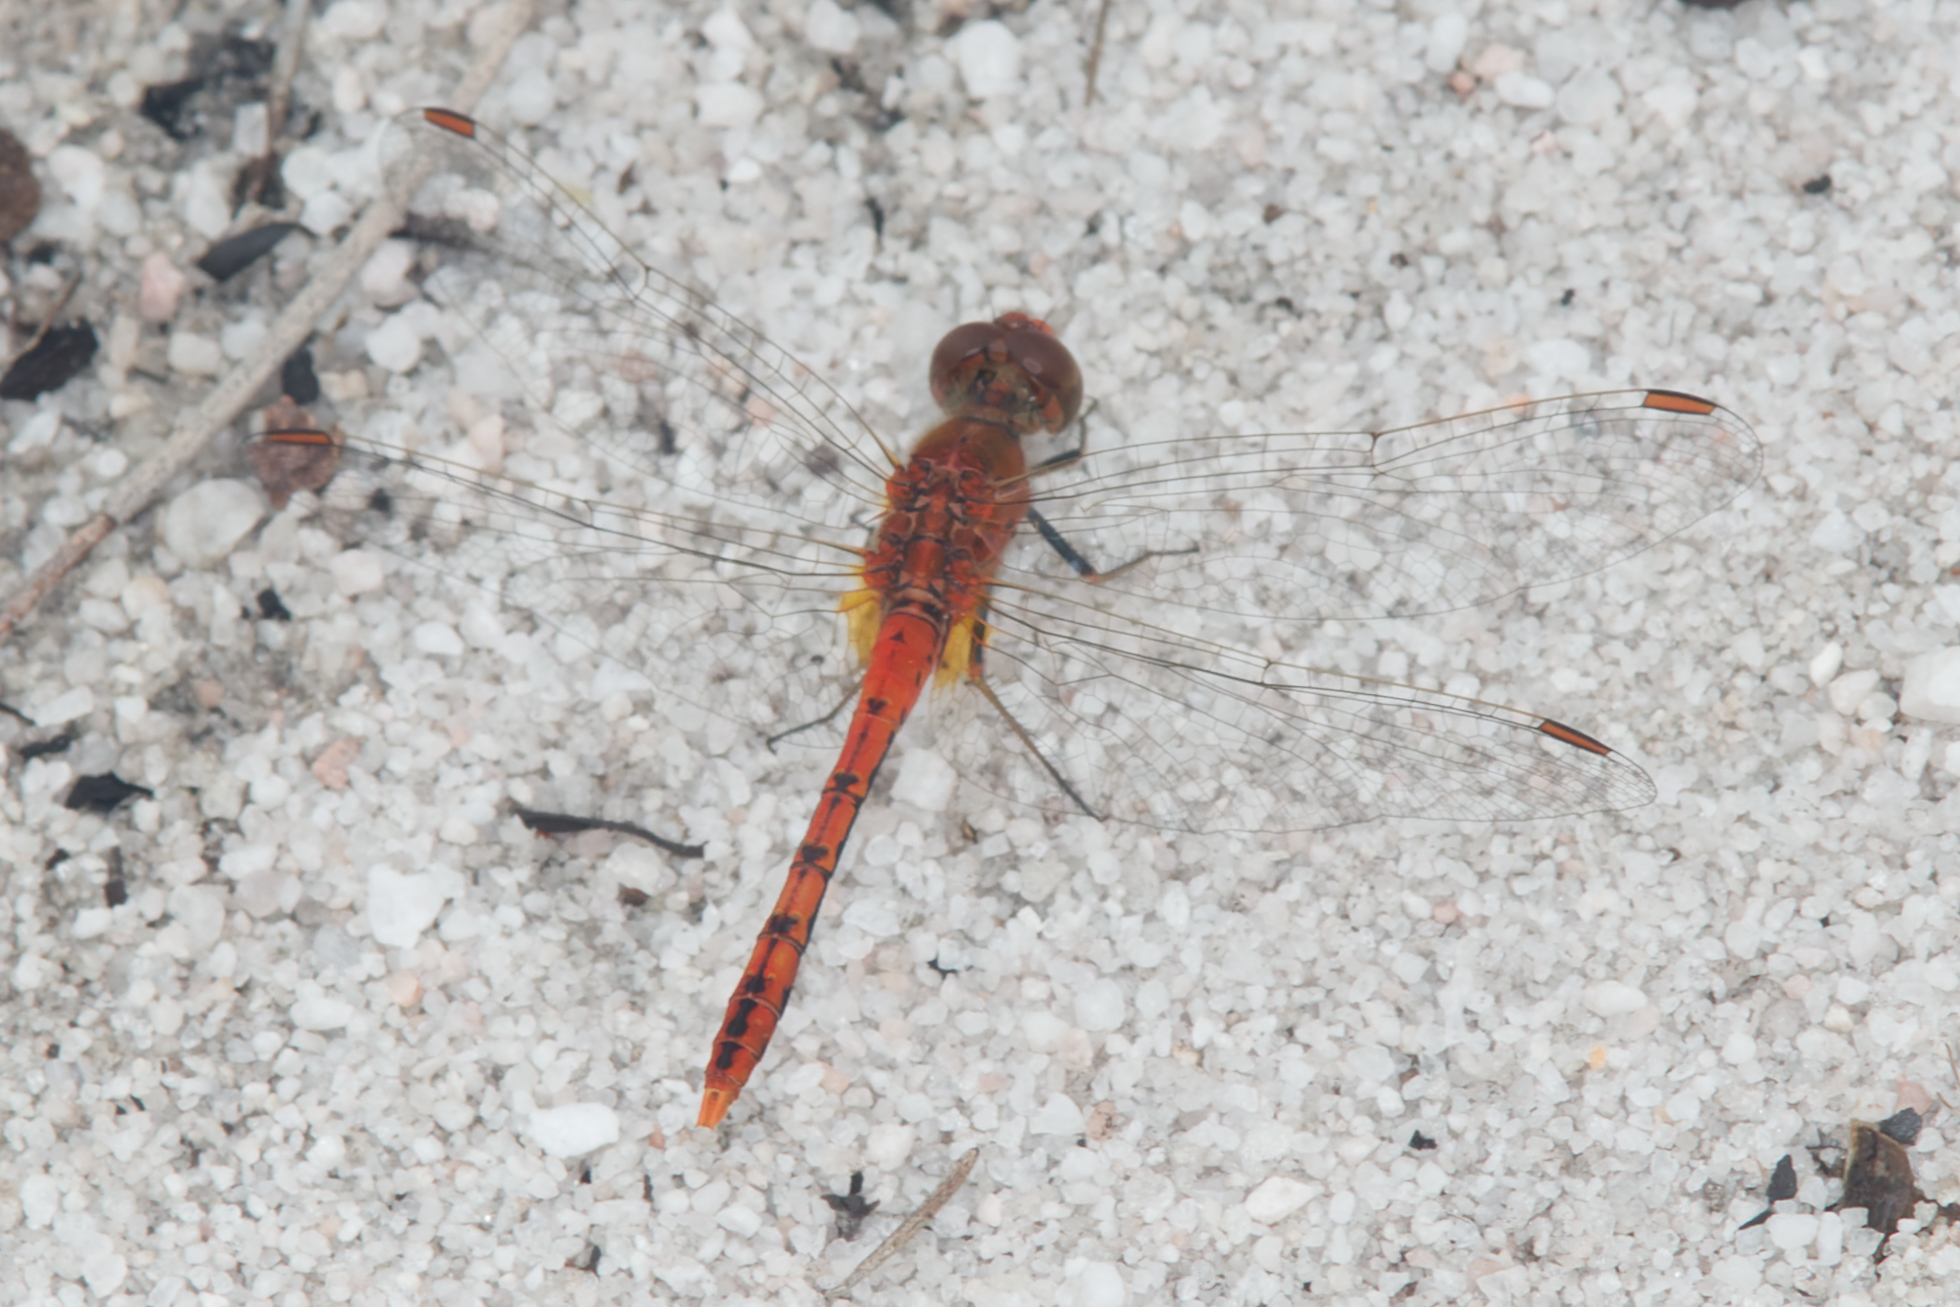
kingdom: Animalia
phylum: Arthropoda
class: Insecta
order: Odonata
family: Libellulidae
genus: Diplacodes
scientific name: Diplacodes bipunctata
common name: Red percher dragonfly
